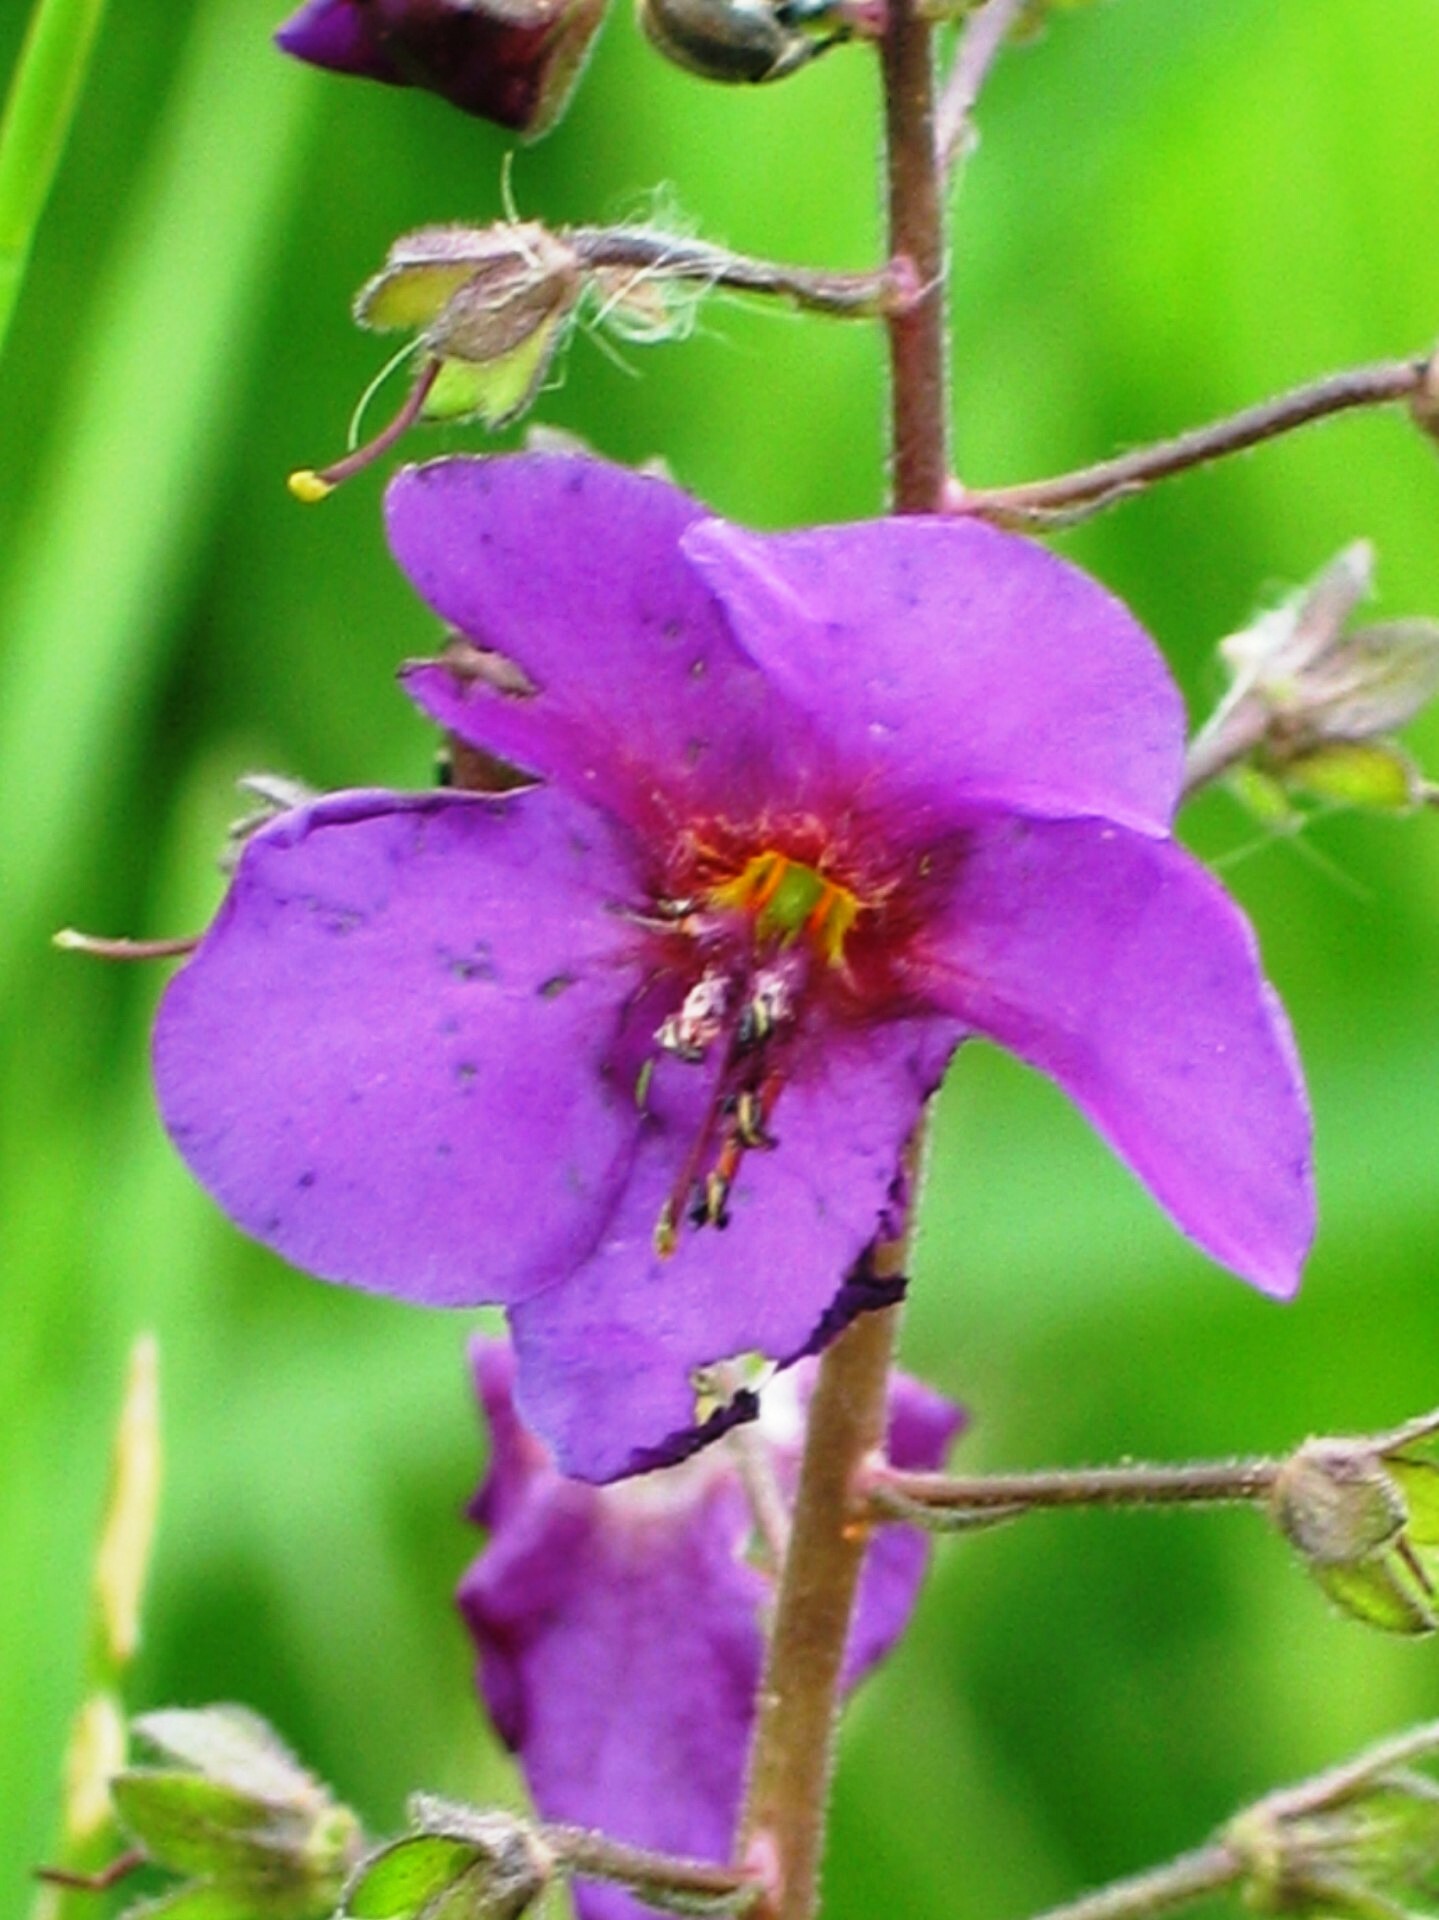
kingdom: Plantae
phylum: Tracheophyta
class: Magnoliopsida
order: Lamiales
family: Scrophulariaceae
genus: Verbascum
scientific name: Verbascum phoeniceum
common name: Purple mullein
